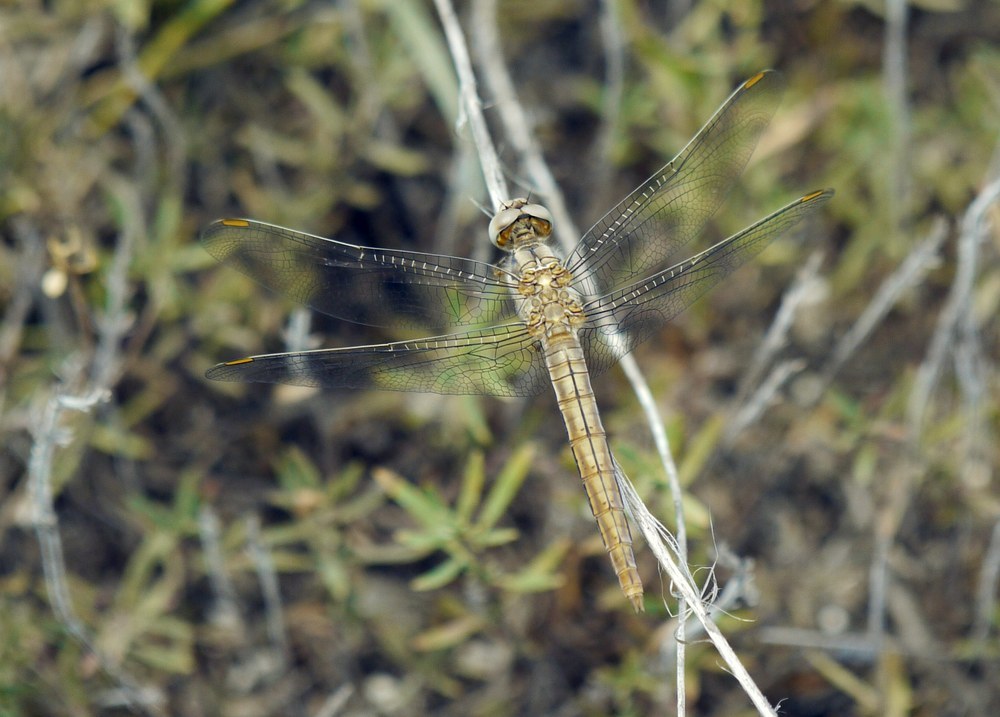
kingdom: Animalia
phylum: Arthropoda
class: Insecta
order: Odonata
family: Libellulidae
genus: Orthetrum
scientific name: Orthetrum brunneum
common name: Southern skimmer
